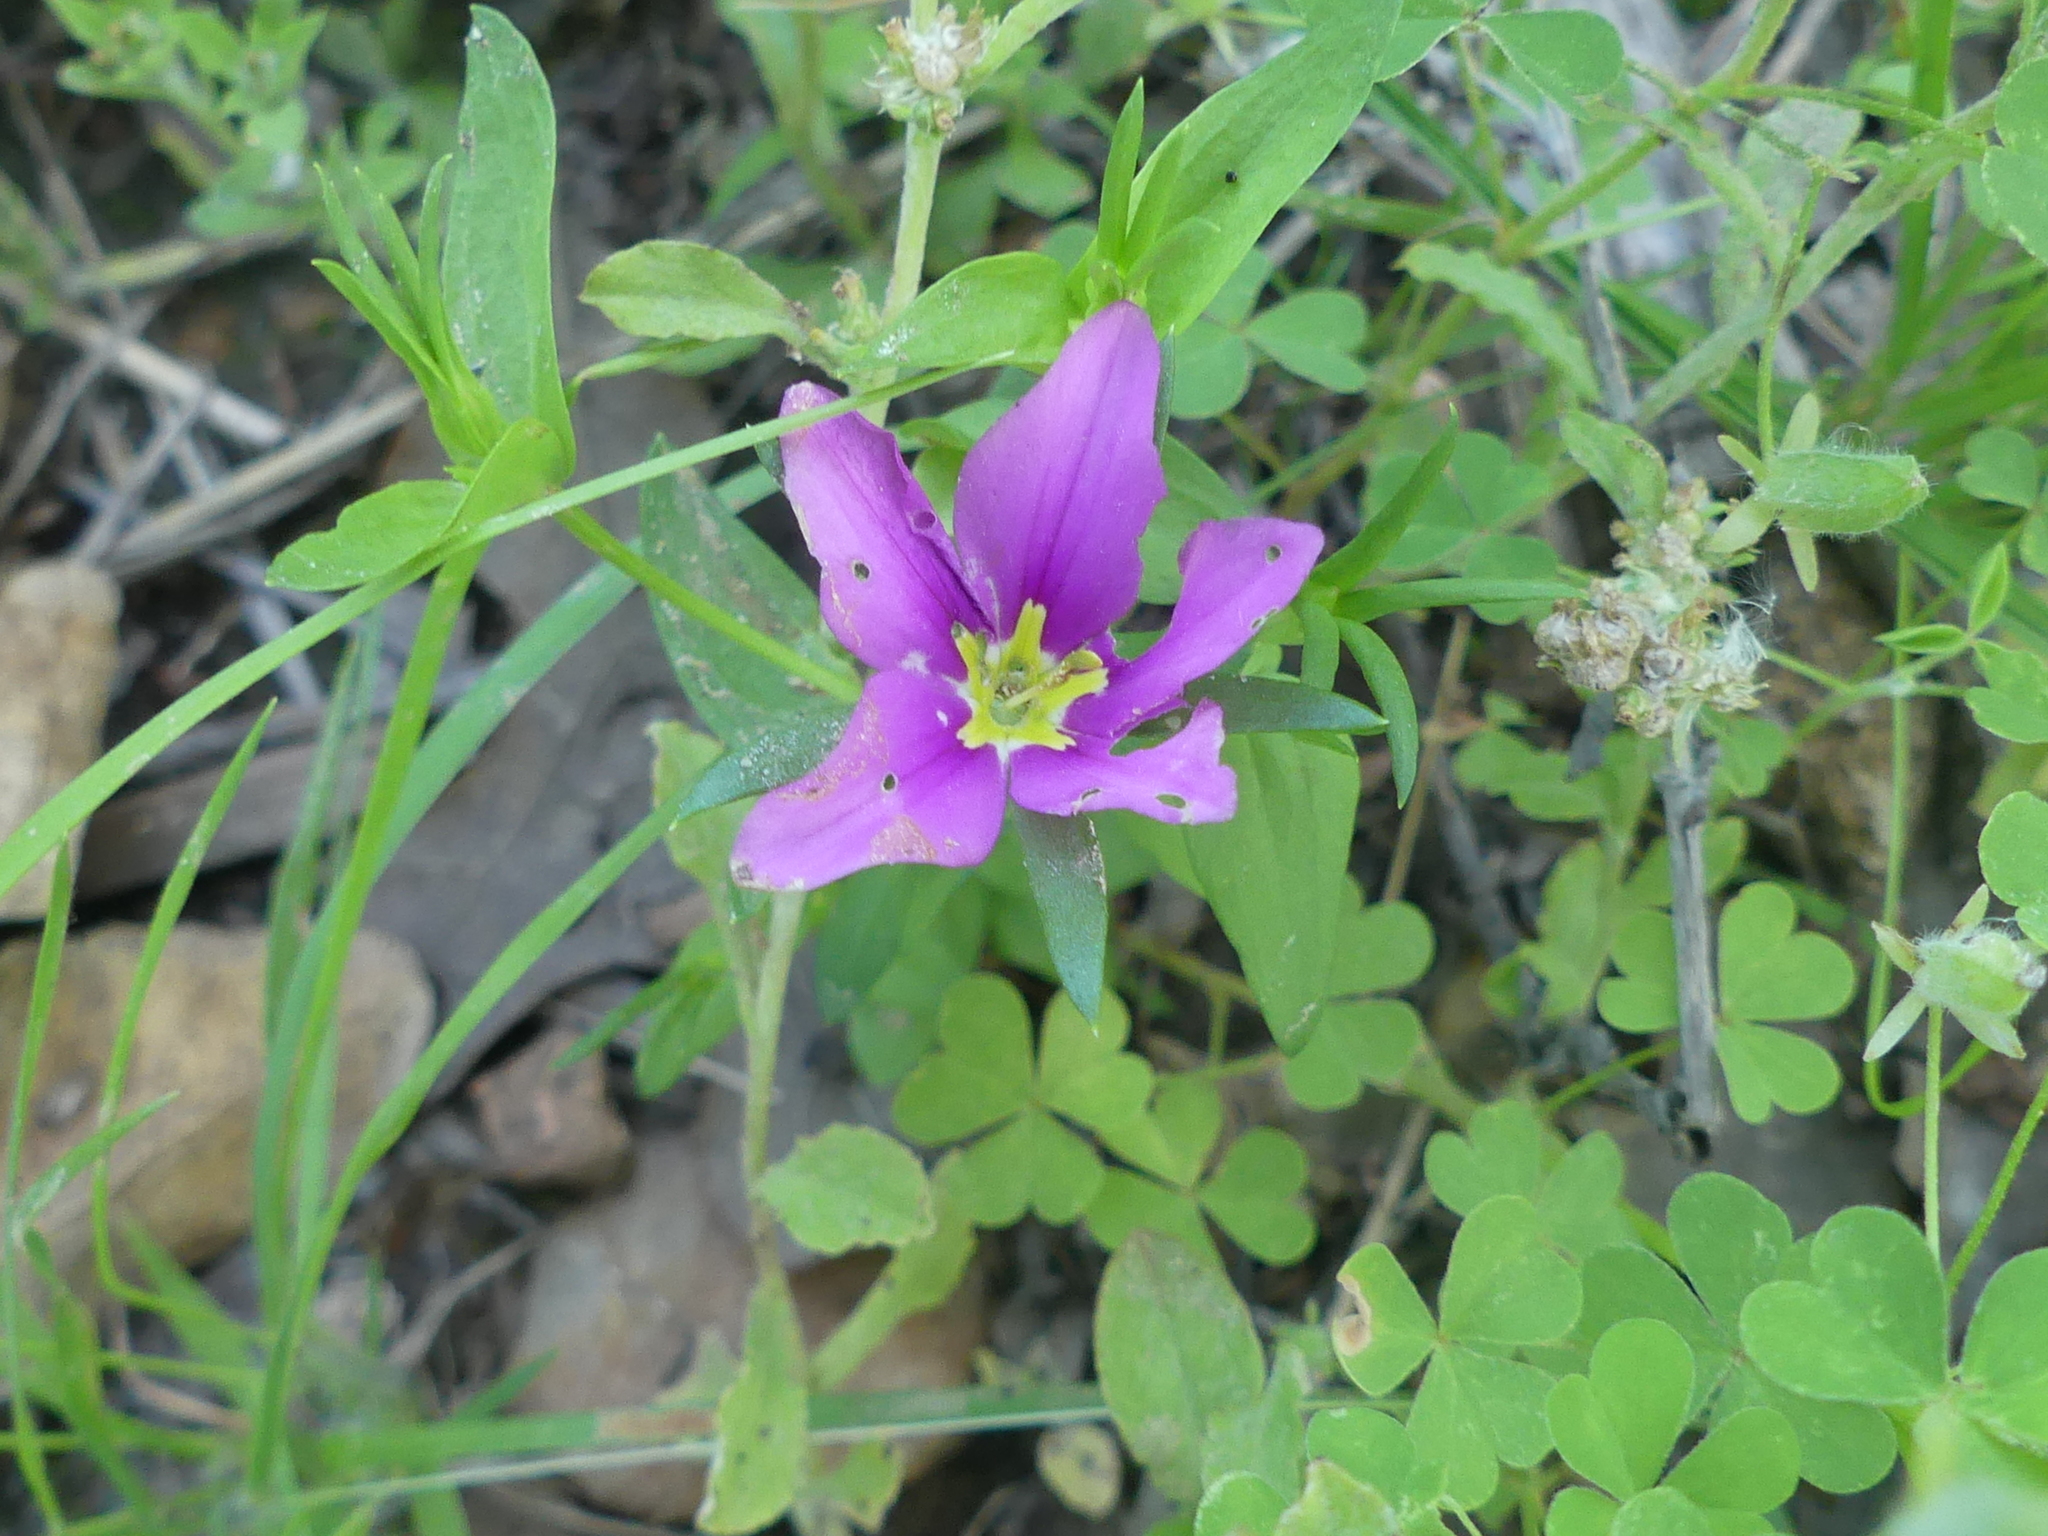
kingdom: Plantae
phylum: Tracheophyta
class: Magnoliopsida
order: Gentianales
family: Gentianaceae
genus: Sabatia
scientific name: Sabatia campestris
